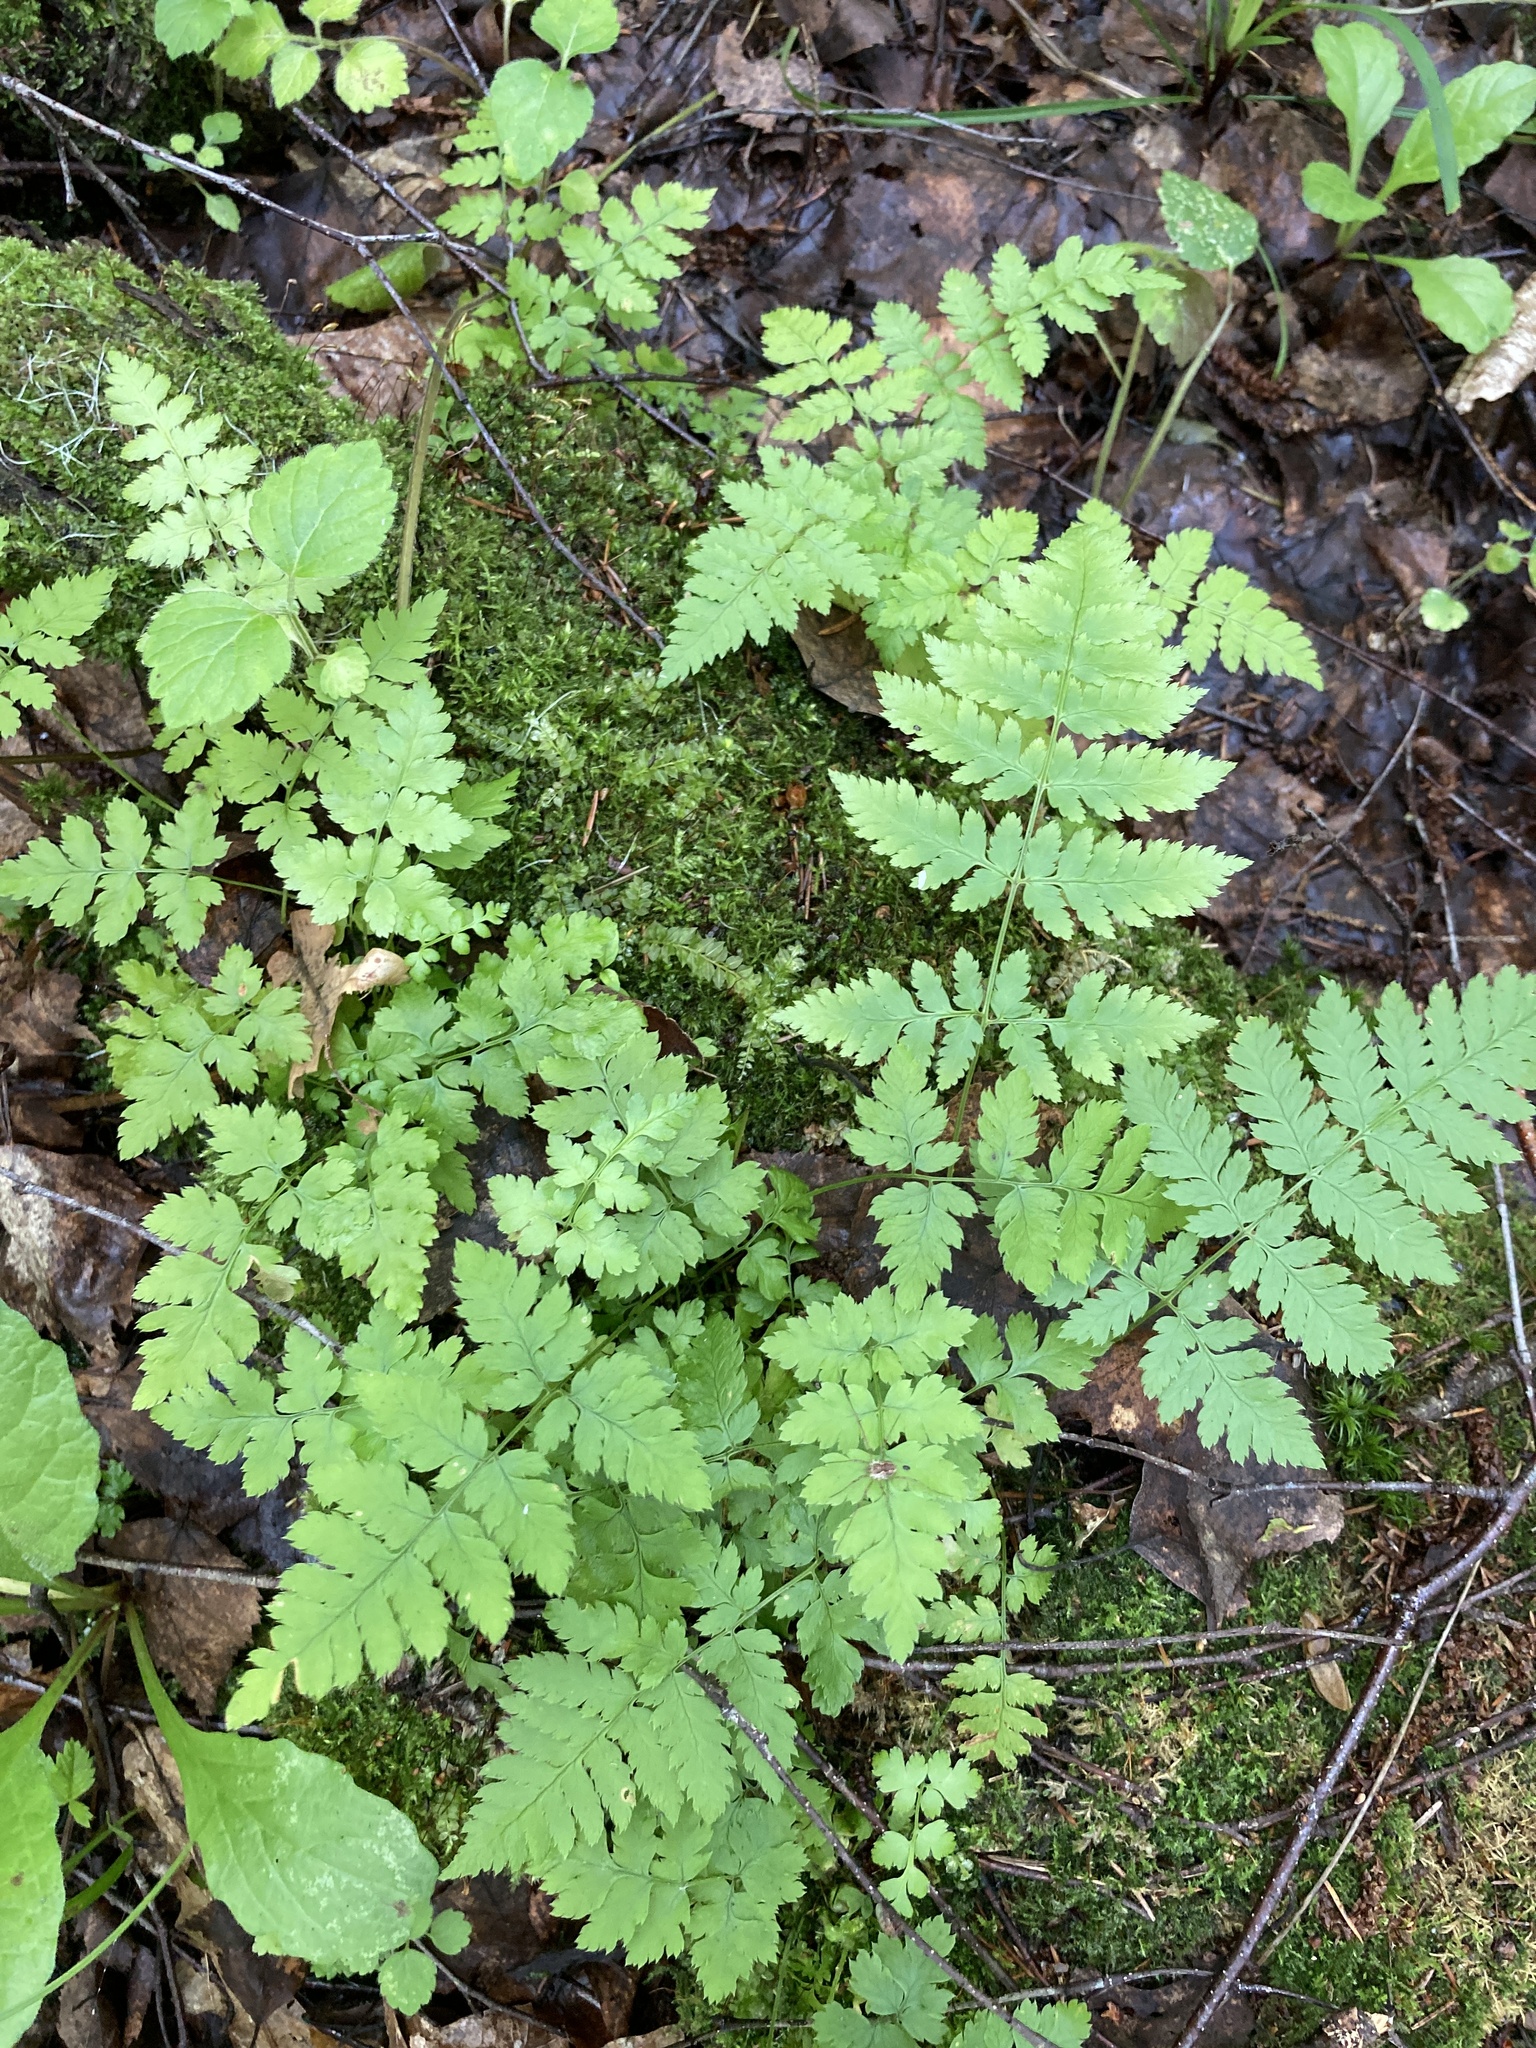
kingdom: Plantae
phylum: Tracheophyta
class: Polypodiopsida
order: Polypodiales
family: Dryopteridaceae
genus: Dryopteris
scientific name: Dryopteris carthusiana
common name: Narrow buckler-fern
